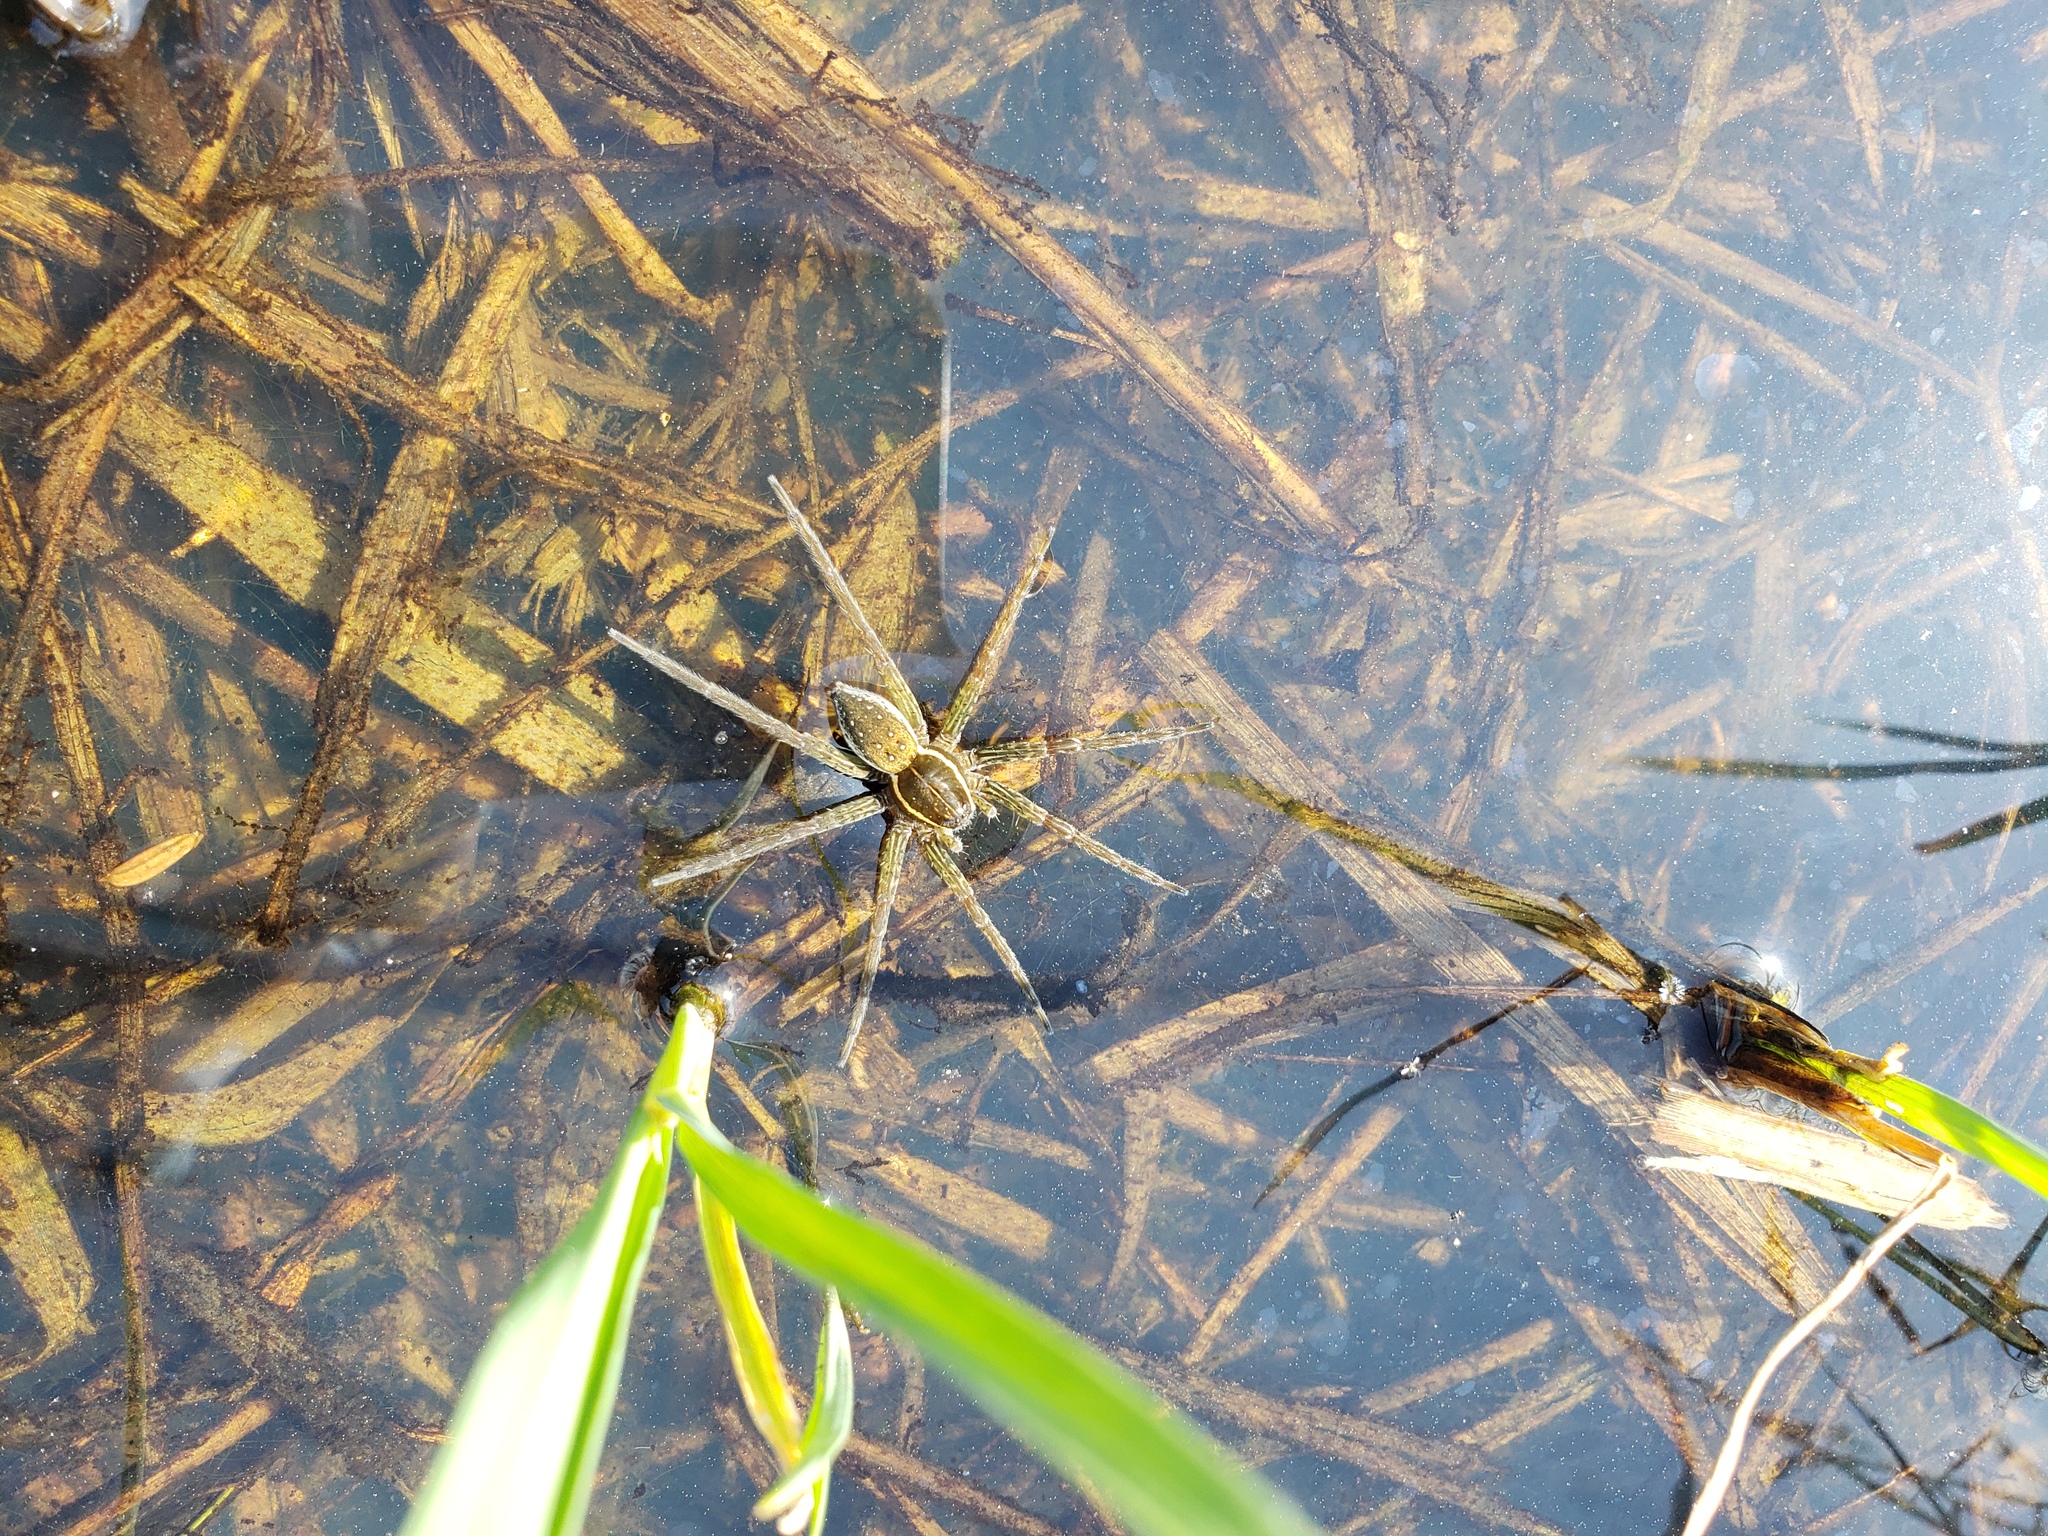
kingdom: Animalia
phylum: Arthropoda
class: Arachnida
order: Araneae
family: Pisauridae
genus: Dolomedes
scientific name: Dolomedes triton
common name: Six-spotted fishing spider
